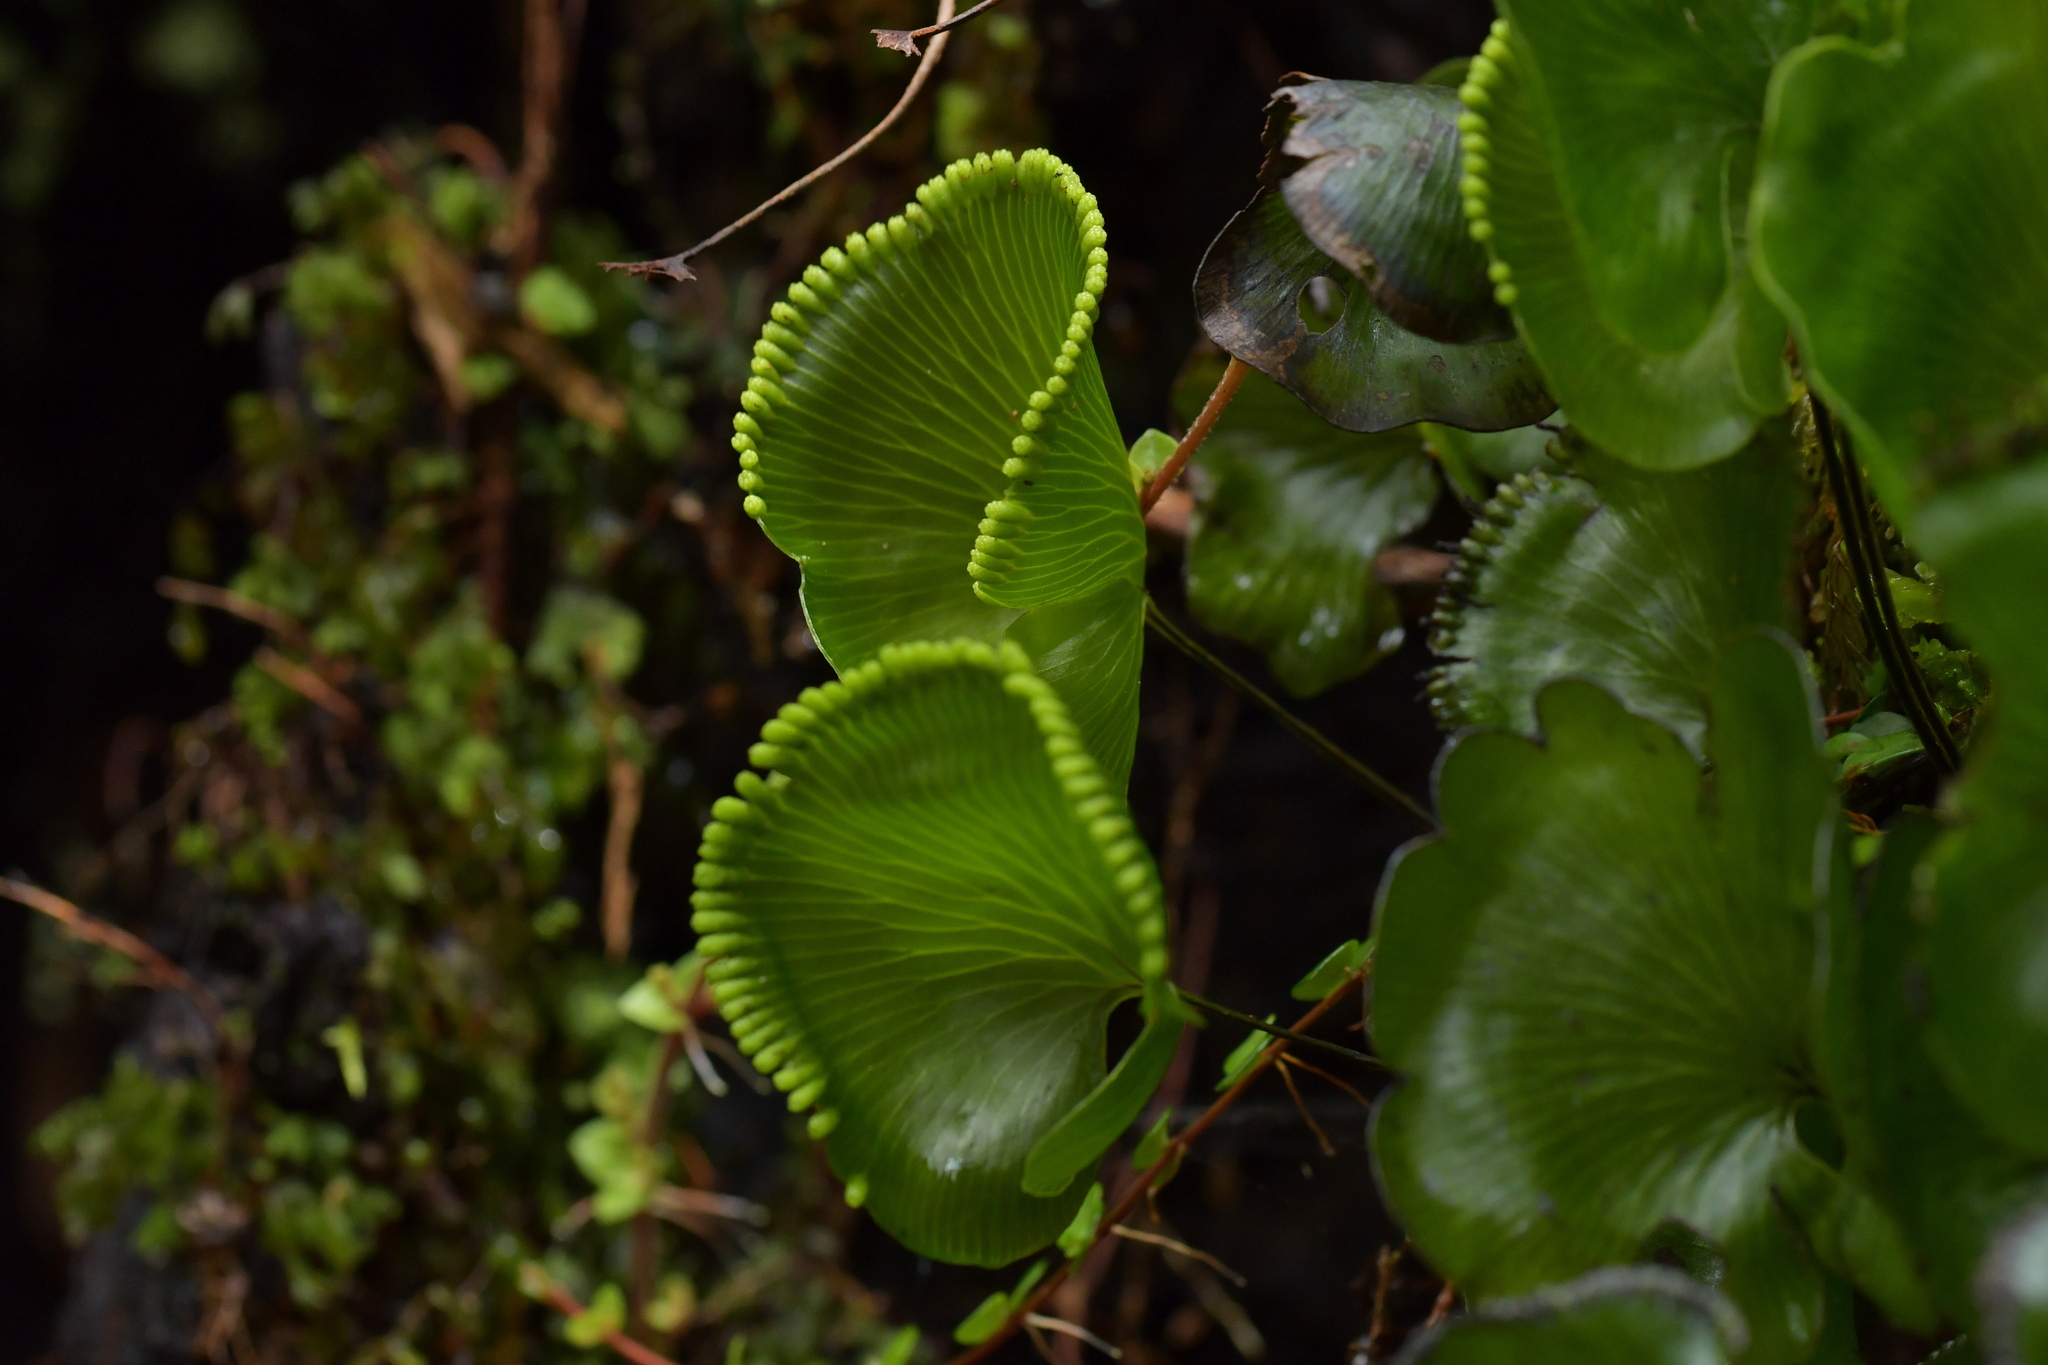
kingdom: Plantae
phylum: Tracheophyta
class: Polypodiopsida
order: Hymenophyllales
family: Hymenophyllaceae
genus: Hymenophyllum
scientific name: Hymenophyllum nephrophyllum
